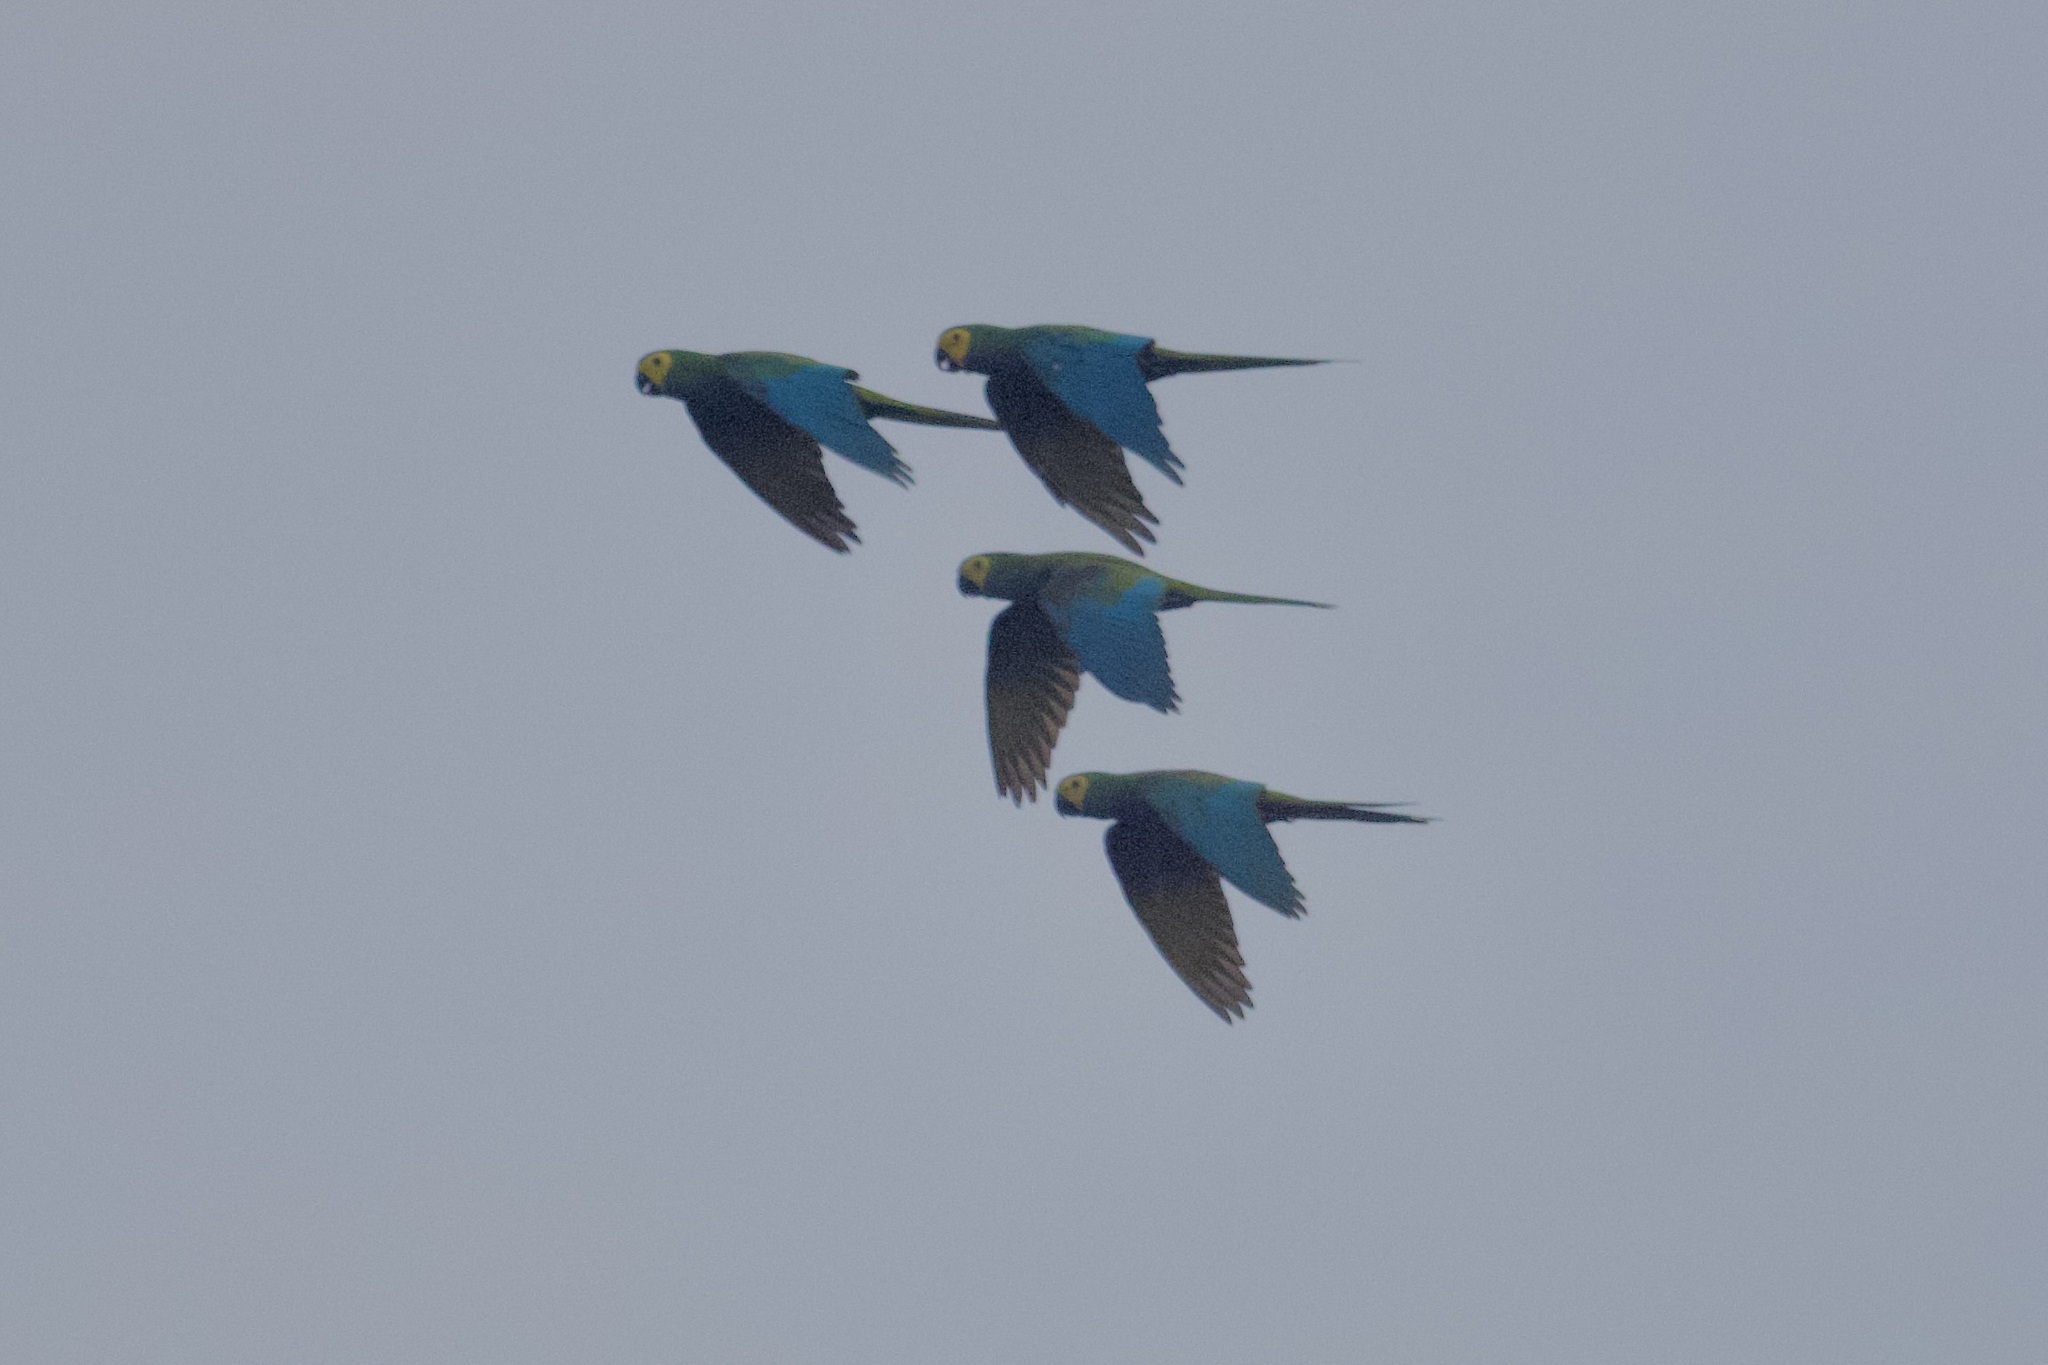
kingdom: Animalia
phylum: Chordata
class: Aves
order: Psittaciformes
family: Psittacidae
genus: Orthopsittaca
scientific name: Orthopsittaca manilata
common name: Red-bellied macaw
